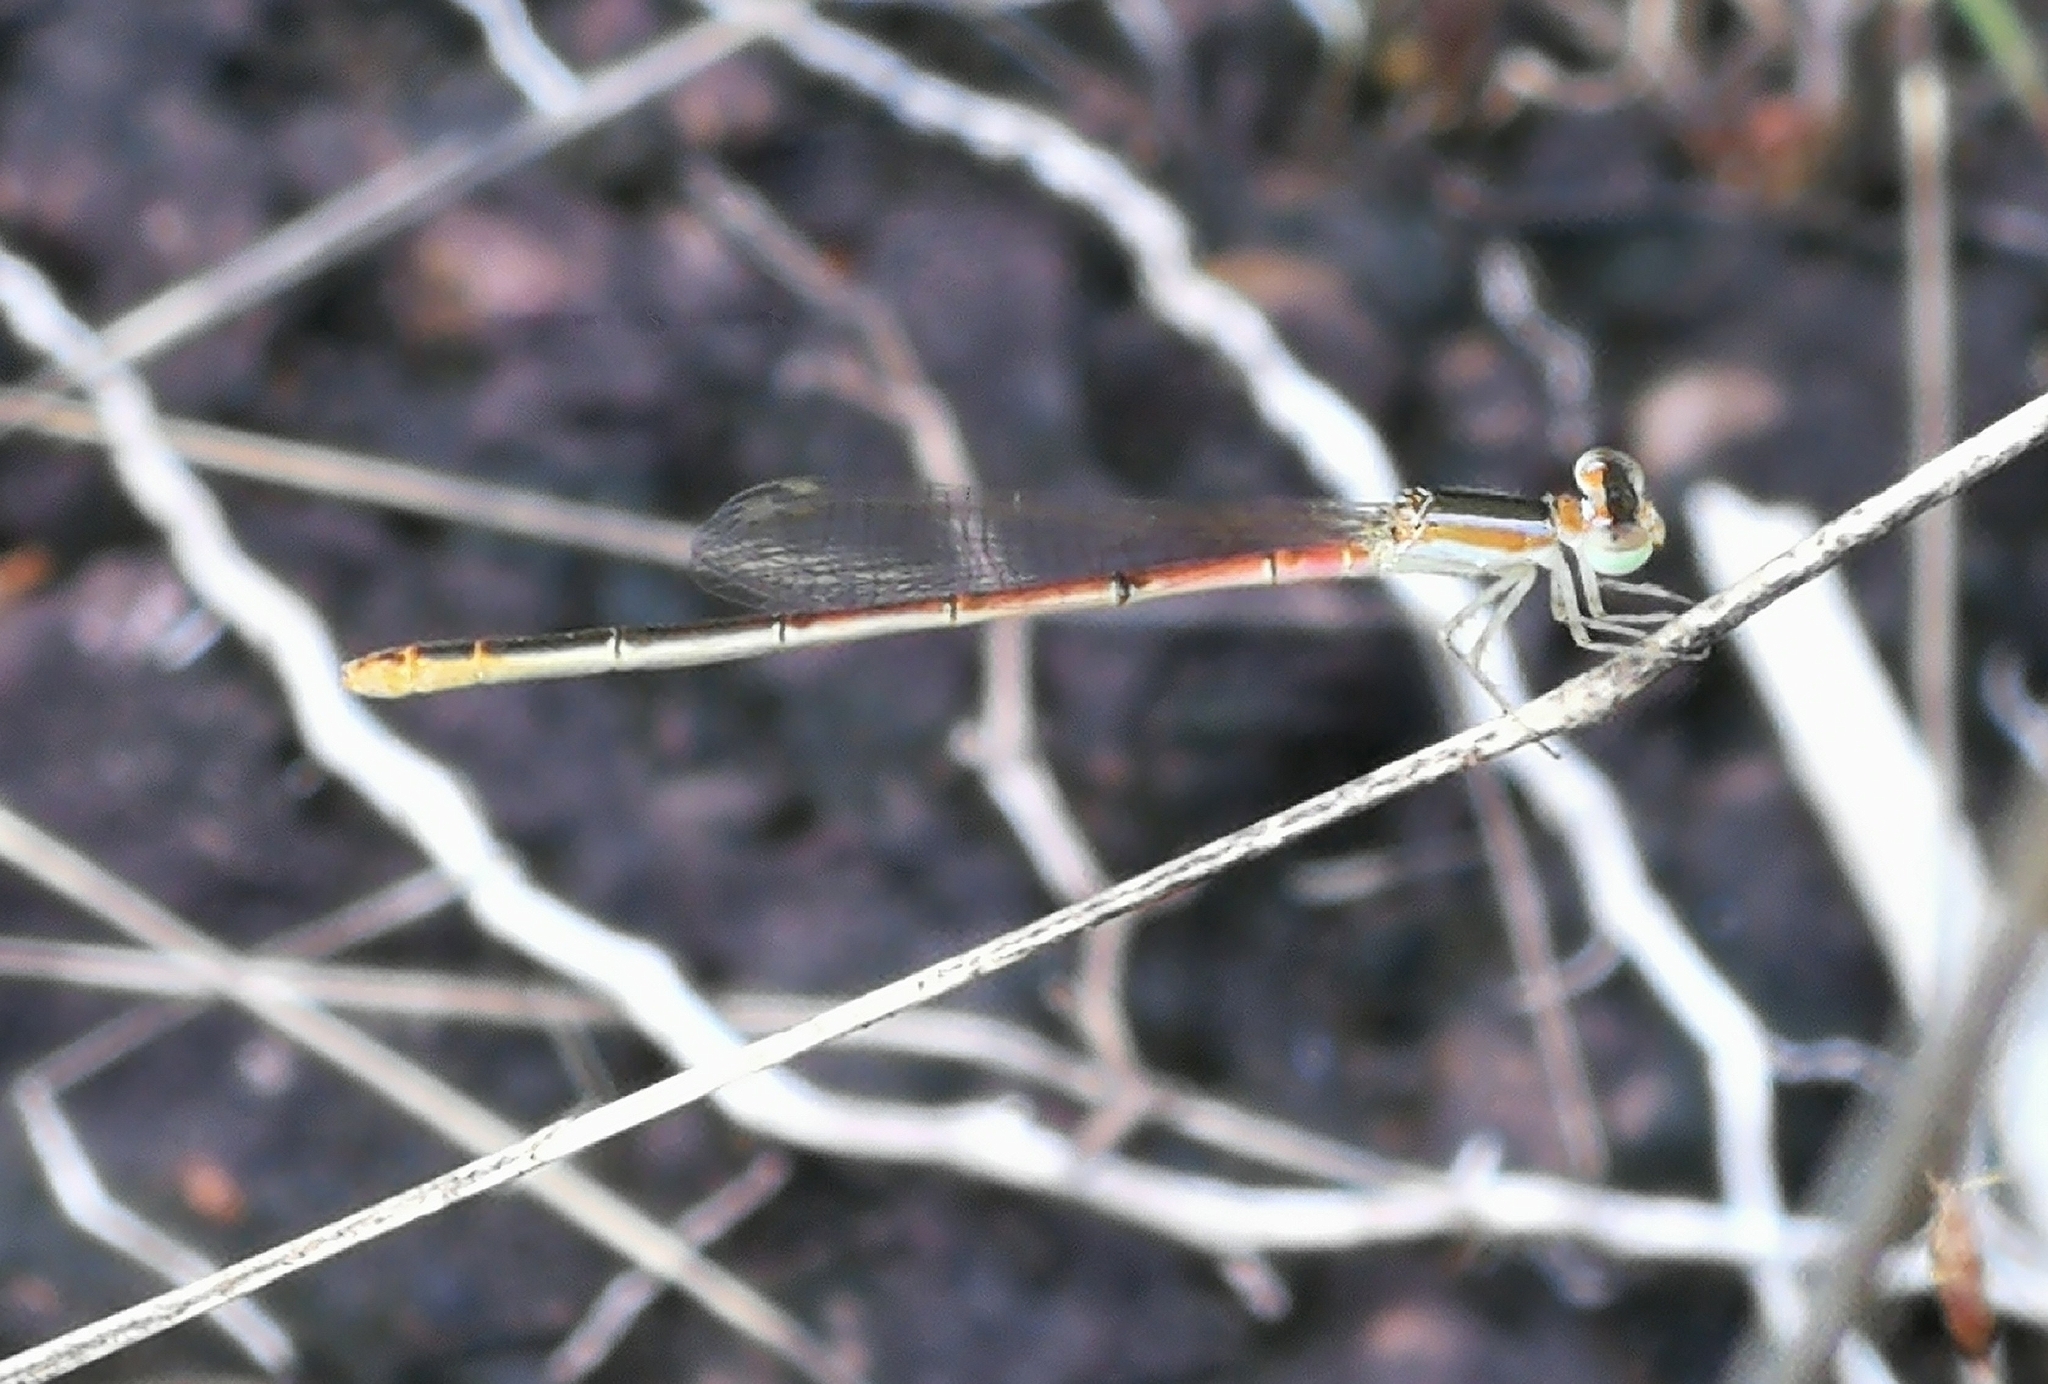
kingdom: Animalia
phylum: Arthropoda
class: Insecta
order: Odonata
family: Coenagrionidae
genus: Agriocnemis
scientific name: Agriocnemis pygmaea
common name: Pygmy wisp
